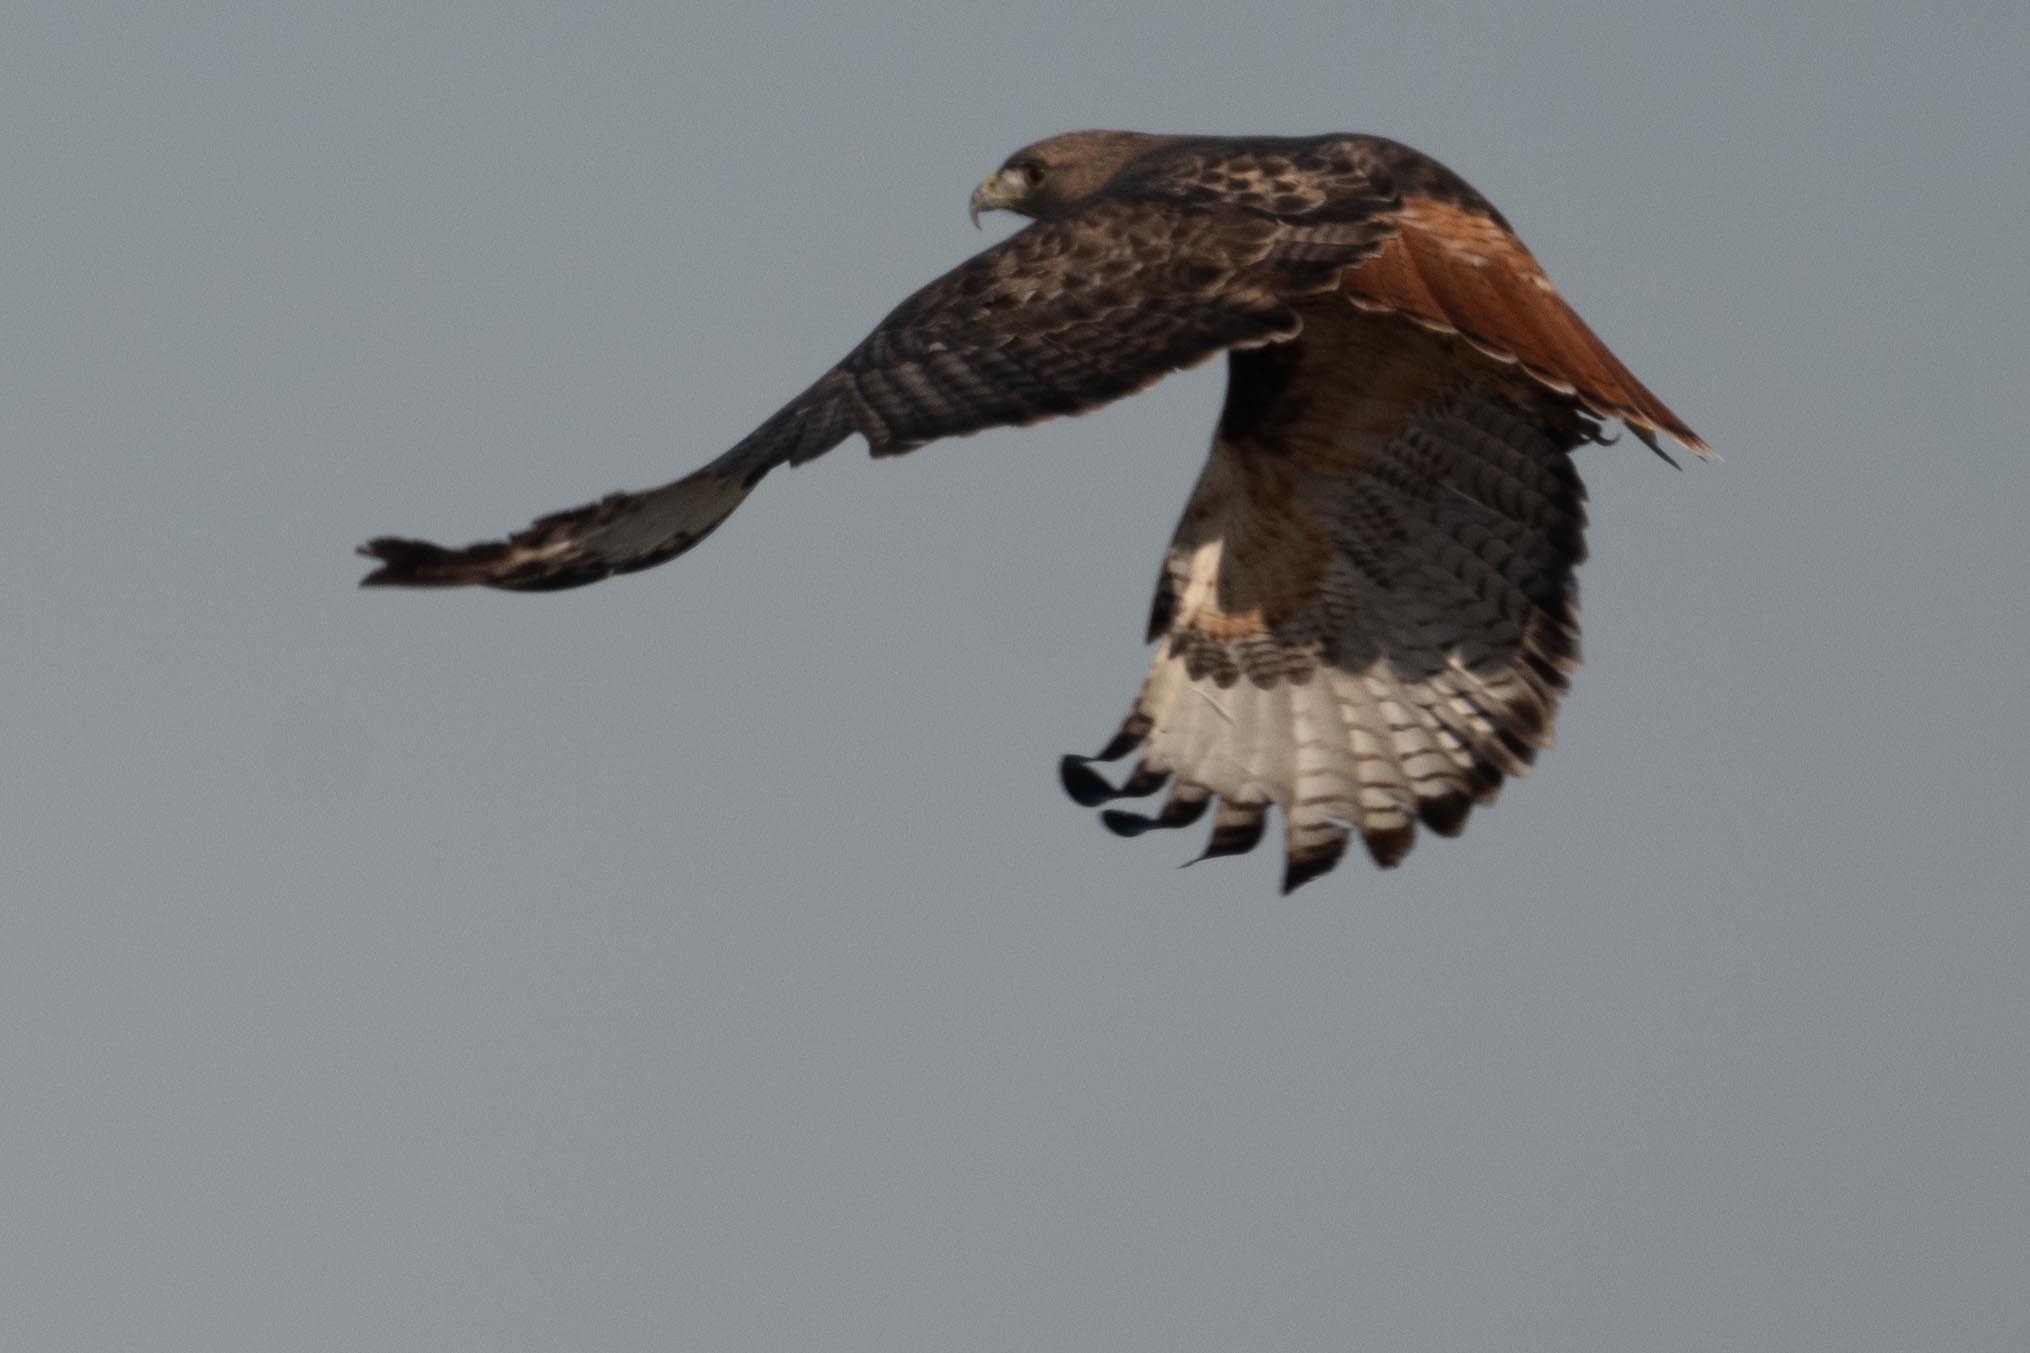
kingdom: Animalia
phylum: Chordata
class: Aves
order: Accipitriformes
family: Accipitridae
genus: Buteo
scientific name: Buteo jamaicensis
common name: Red-tailed hawk
